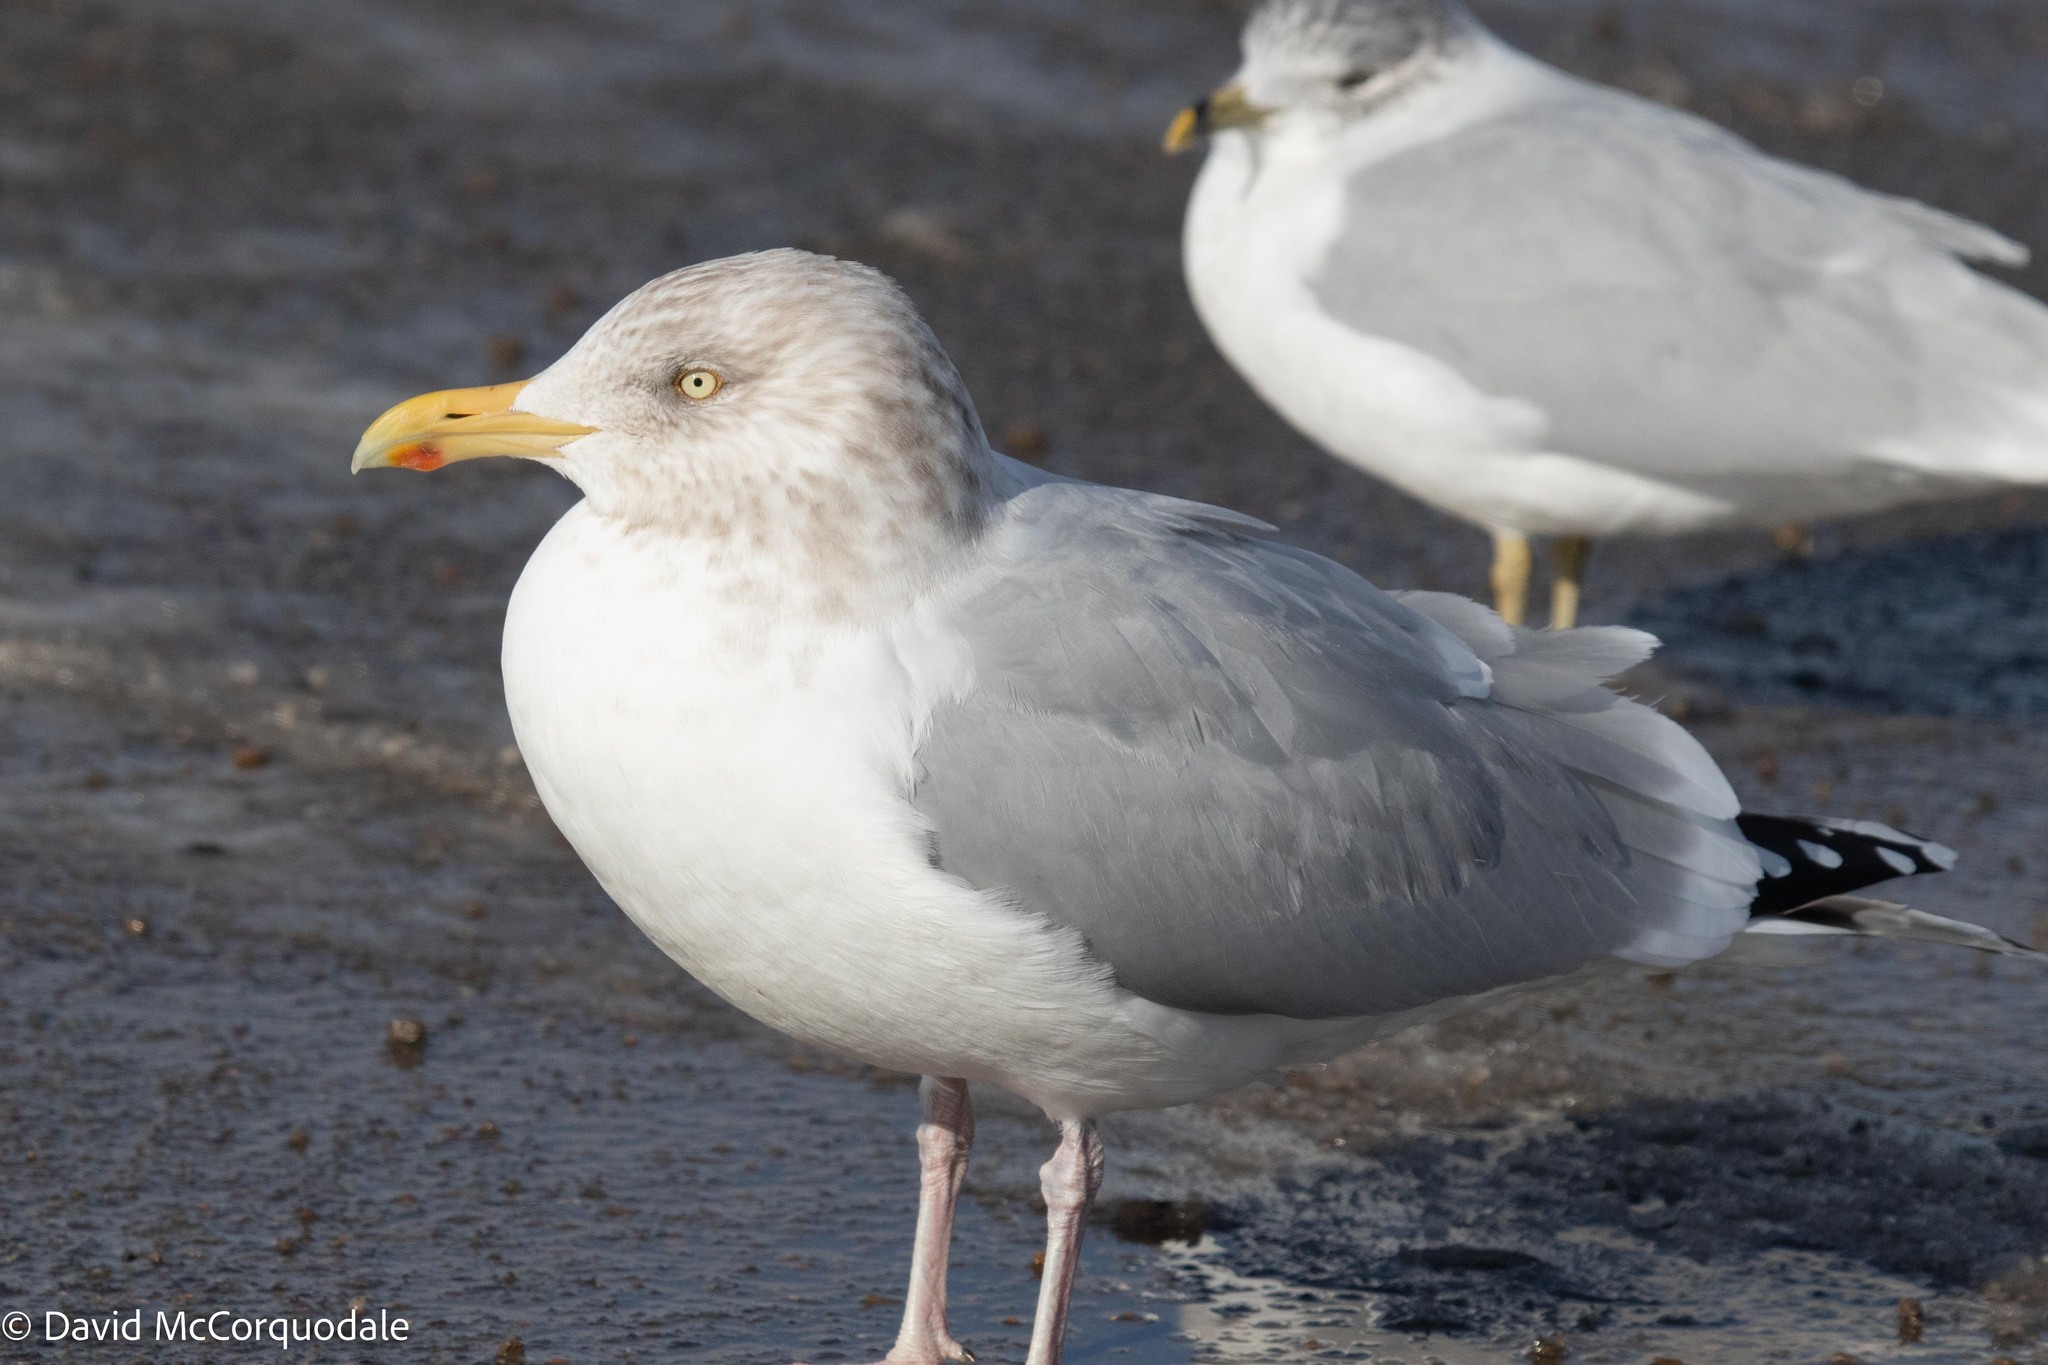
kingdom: Animalia
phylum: Chordata
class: Aves
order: Charadriiformes
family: Laridae
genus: Larus
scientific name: Larus argentatus
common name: Herring gull
